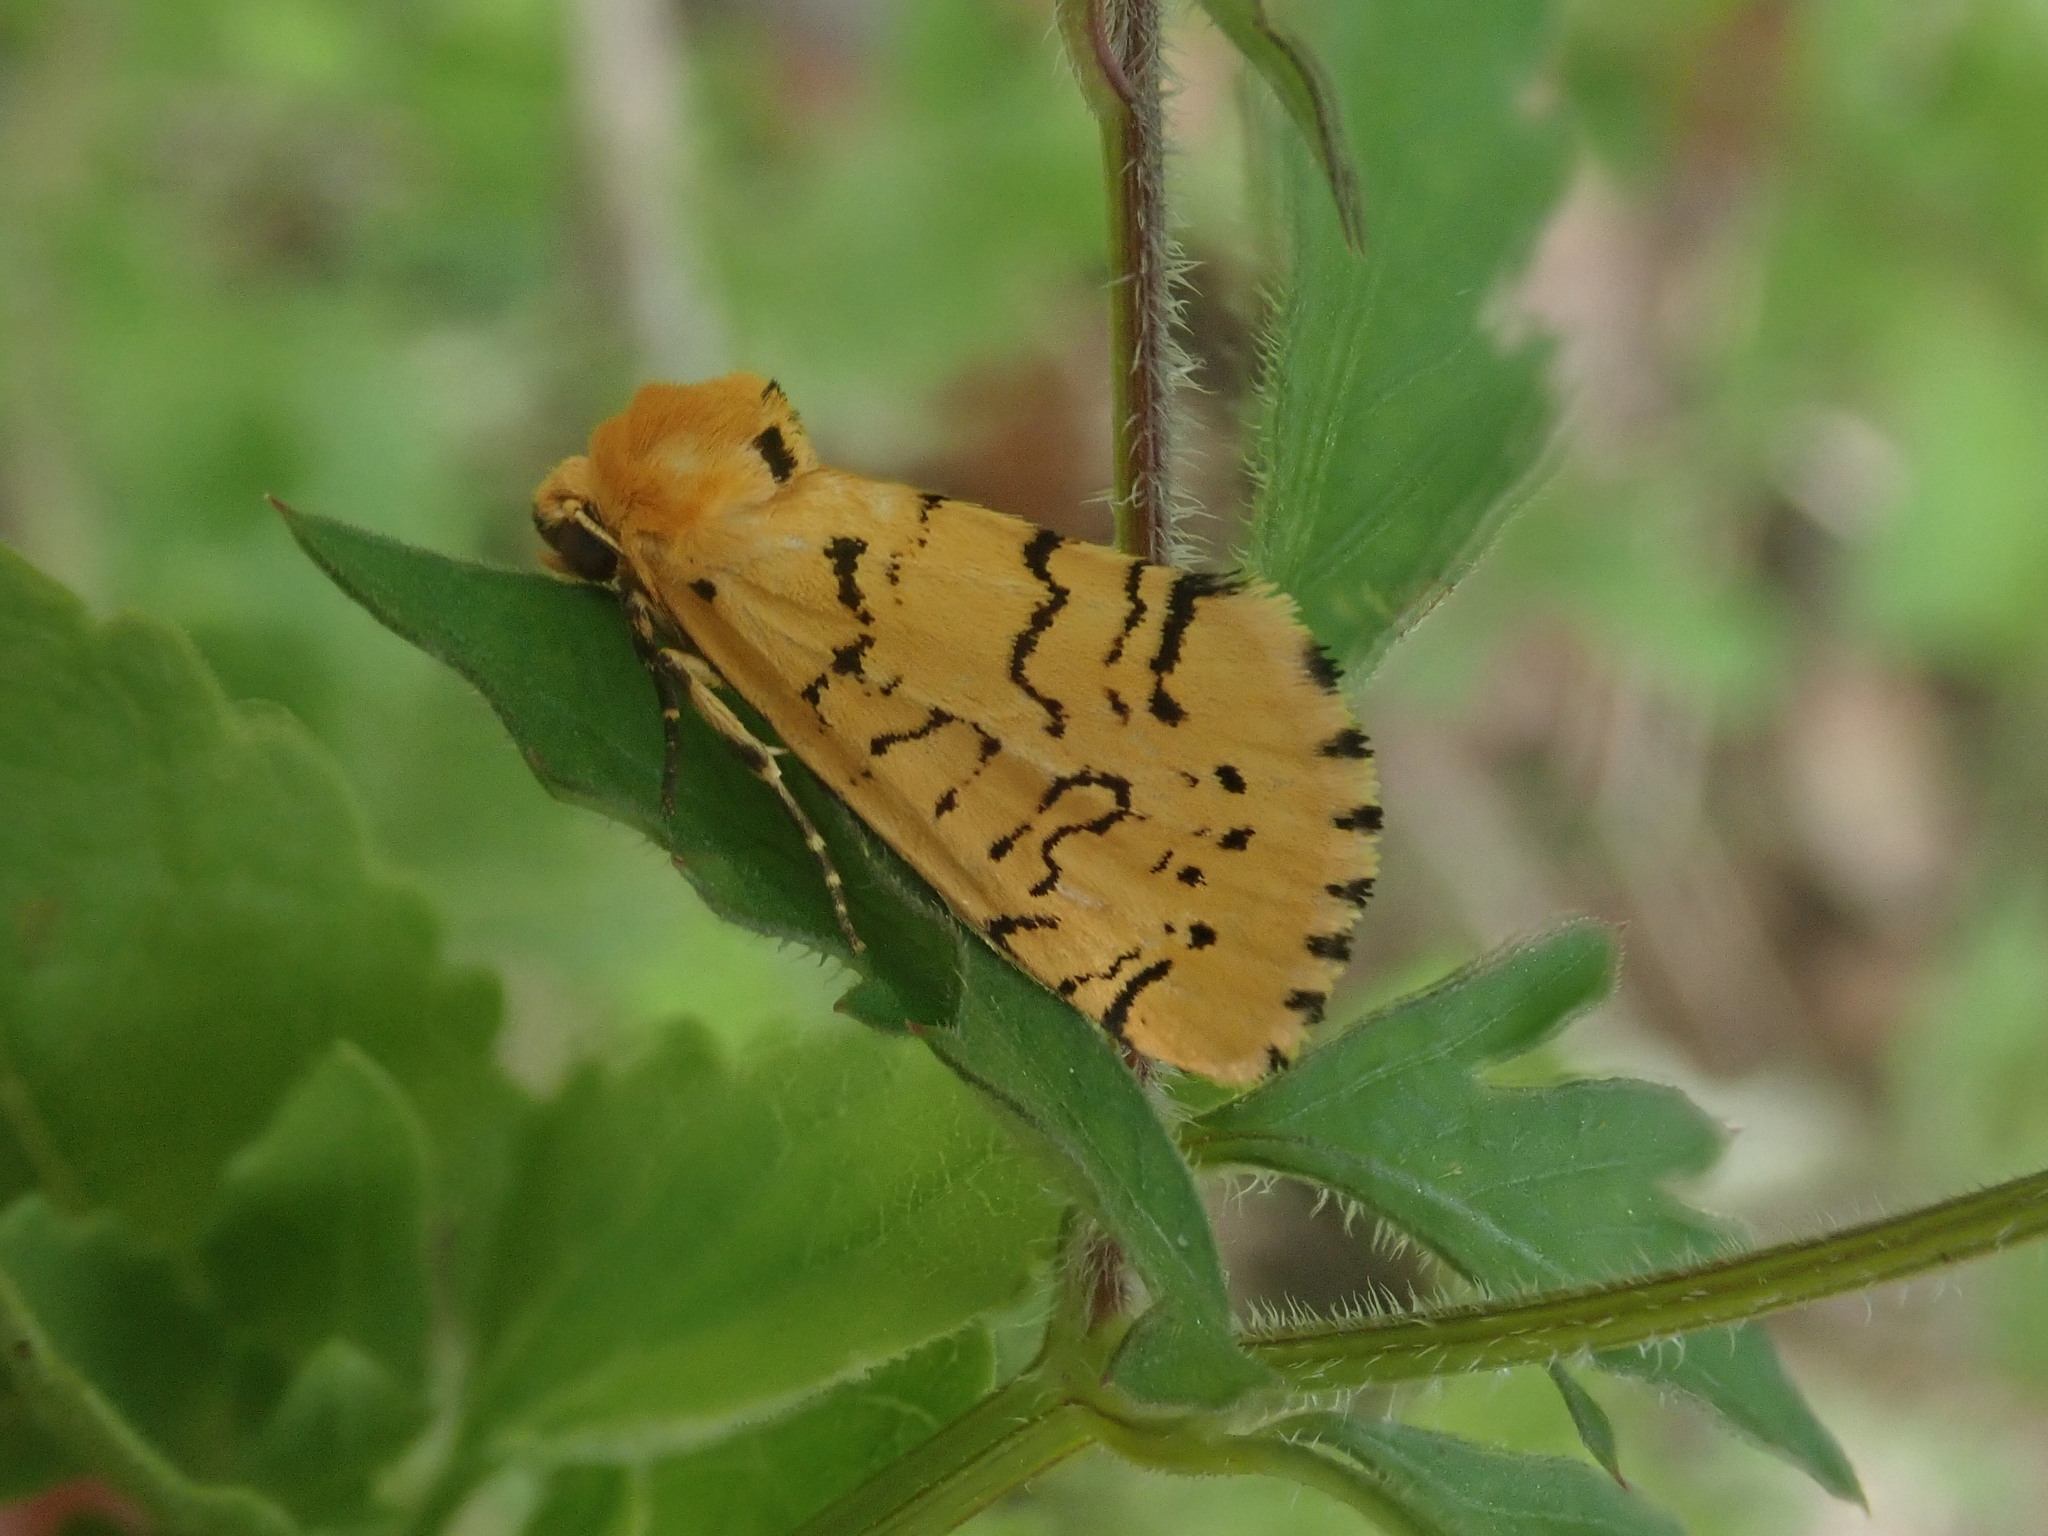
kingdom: Animalia
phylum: Arthropoda
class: Insecta
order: Lepidoptera
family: Noctuidae
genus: Chrysoecia
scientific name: Chrysoecia atrolinea
